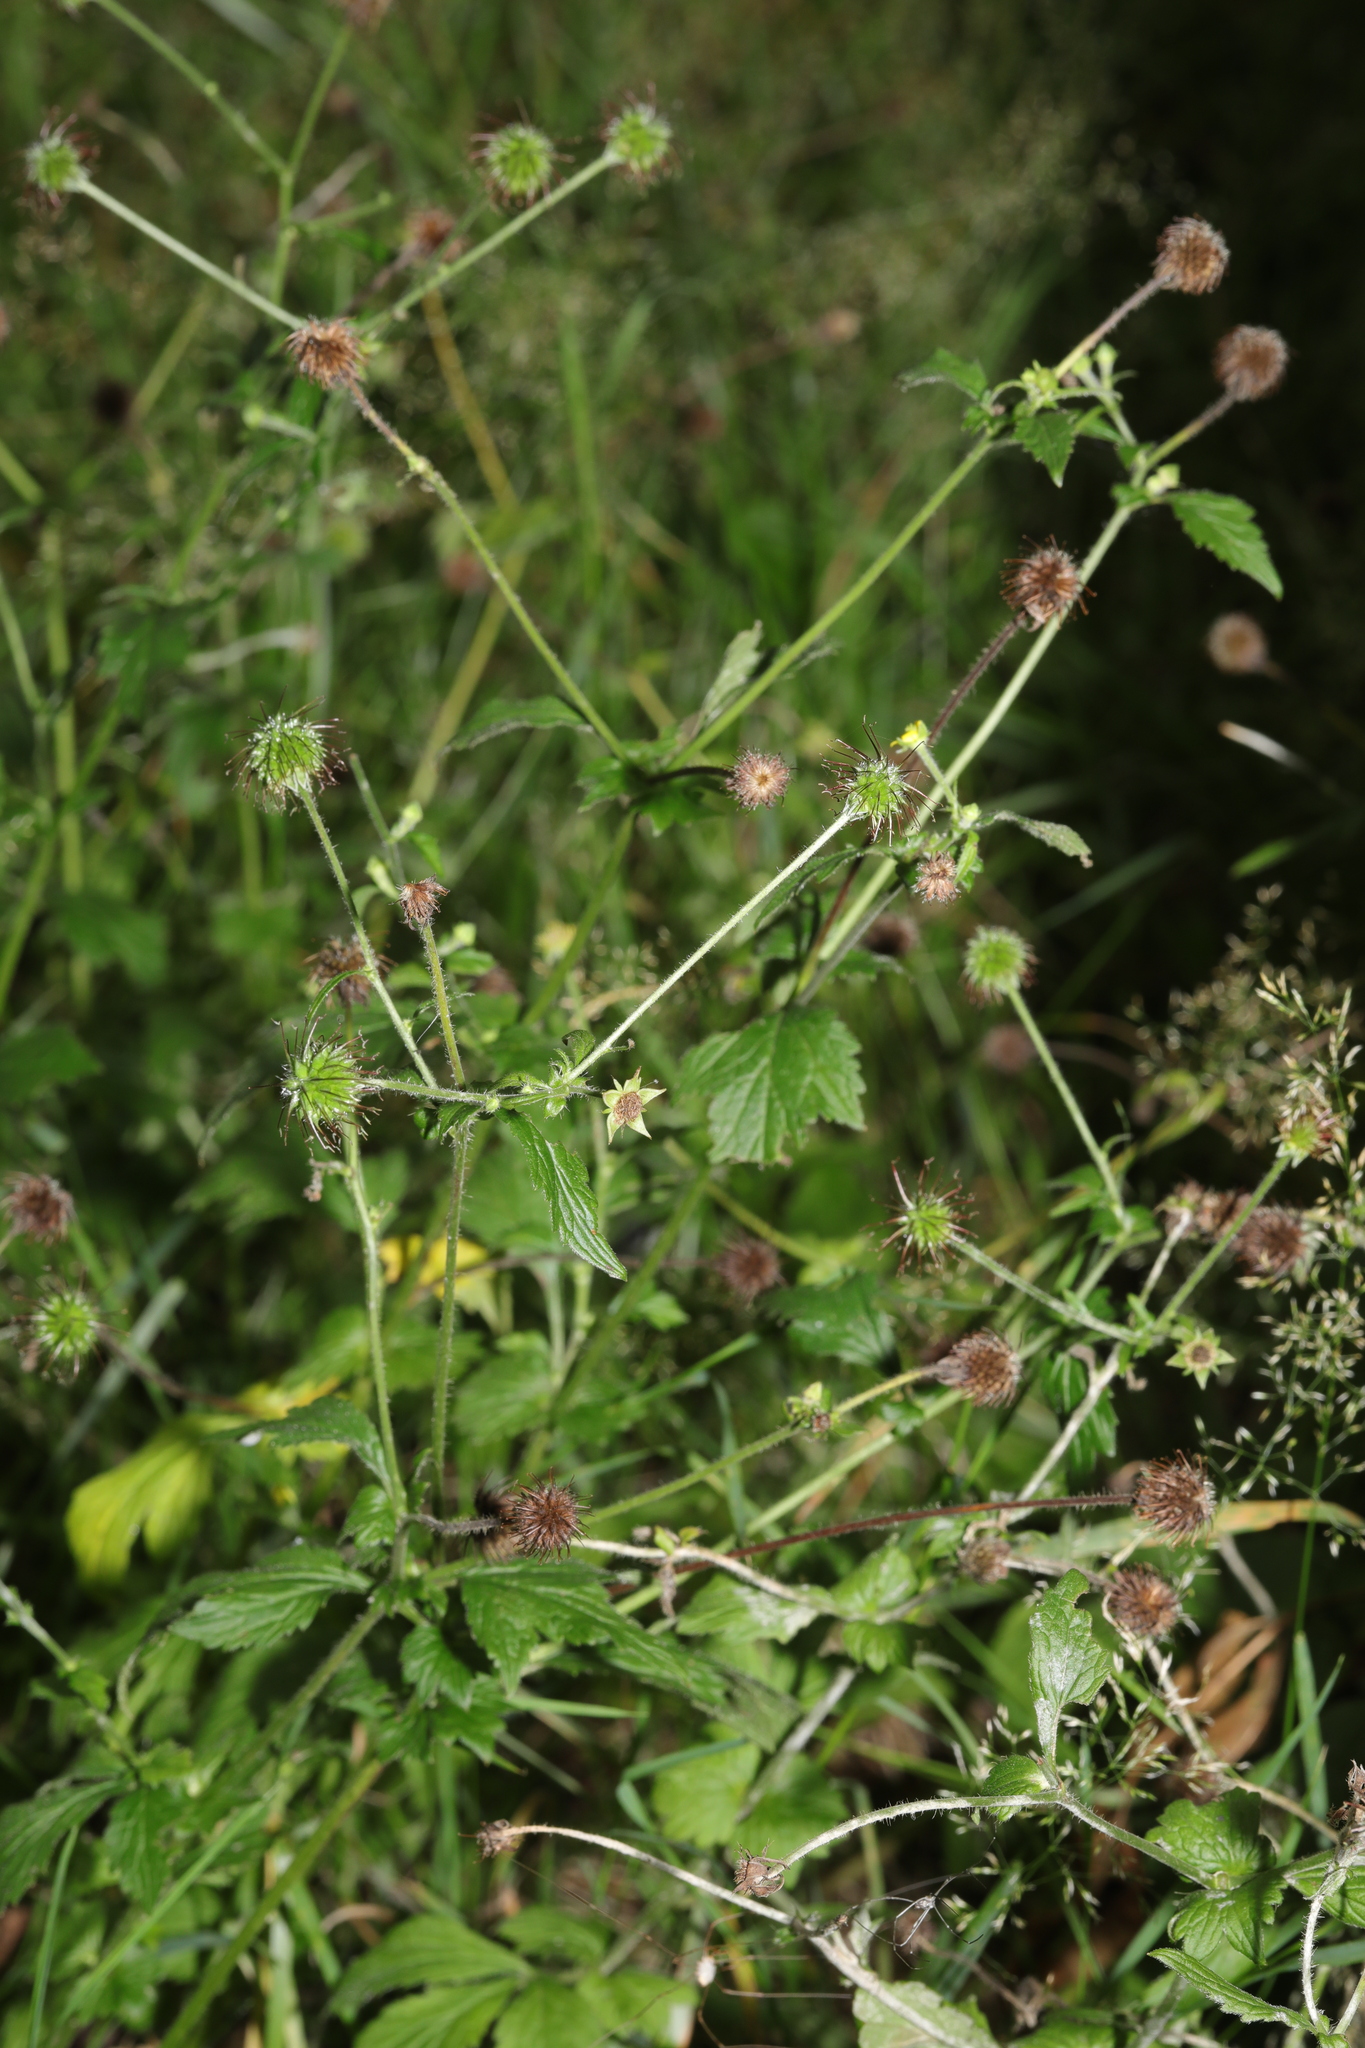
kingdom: Plantae
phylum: Tracheophyta
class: Magnoliopsida
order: Rosales
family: Rosaceae
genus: Geum
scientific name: Geum urbanum
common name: Wood avens
